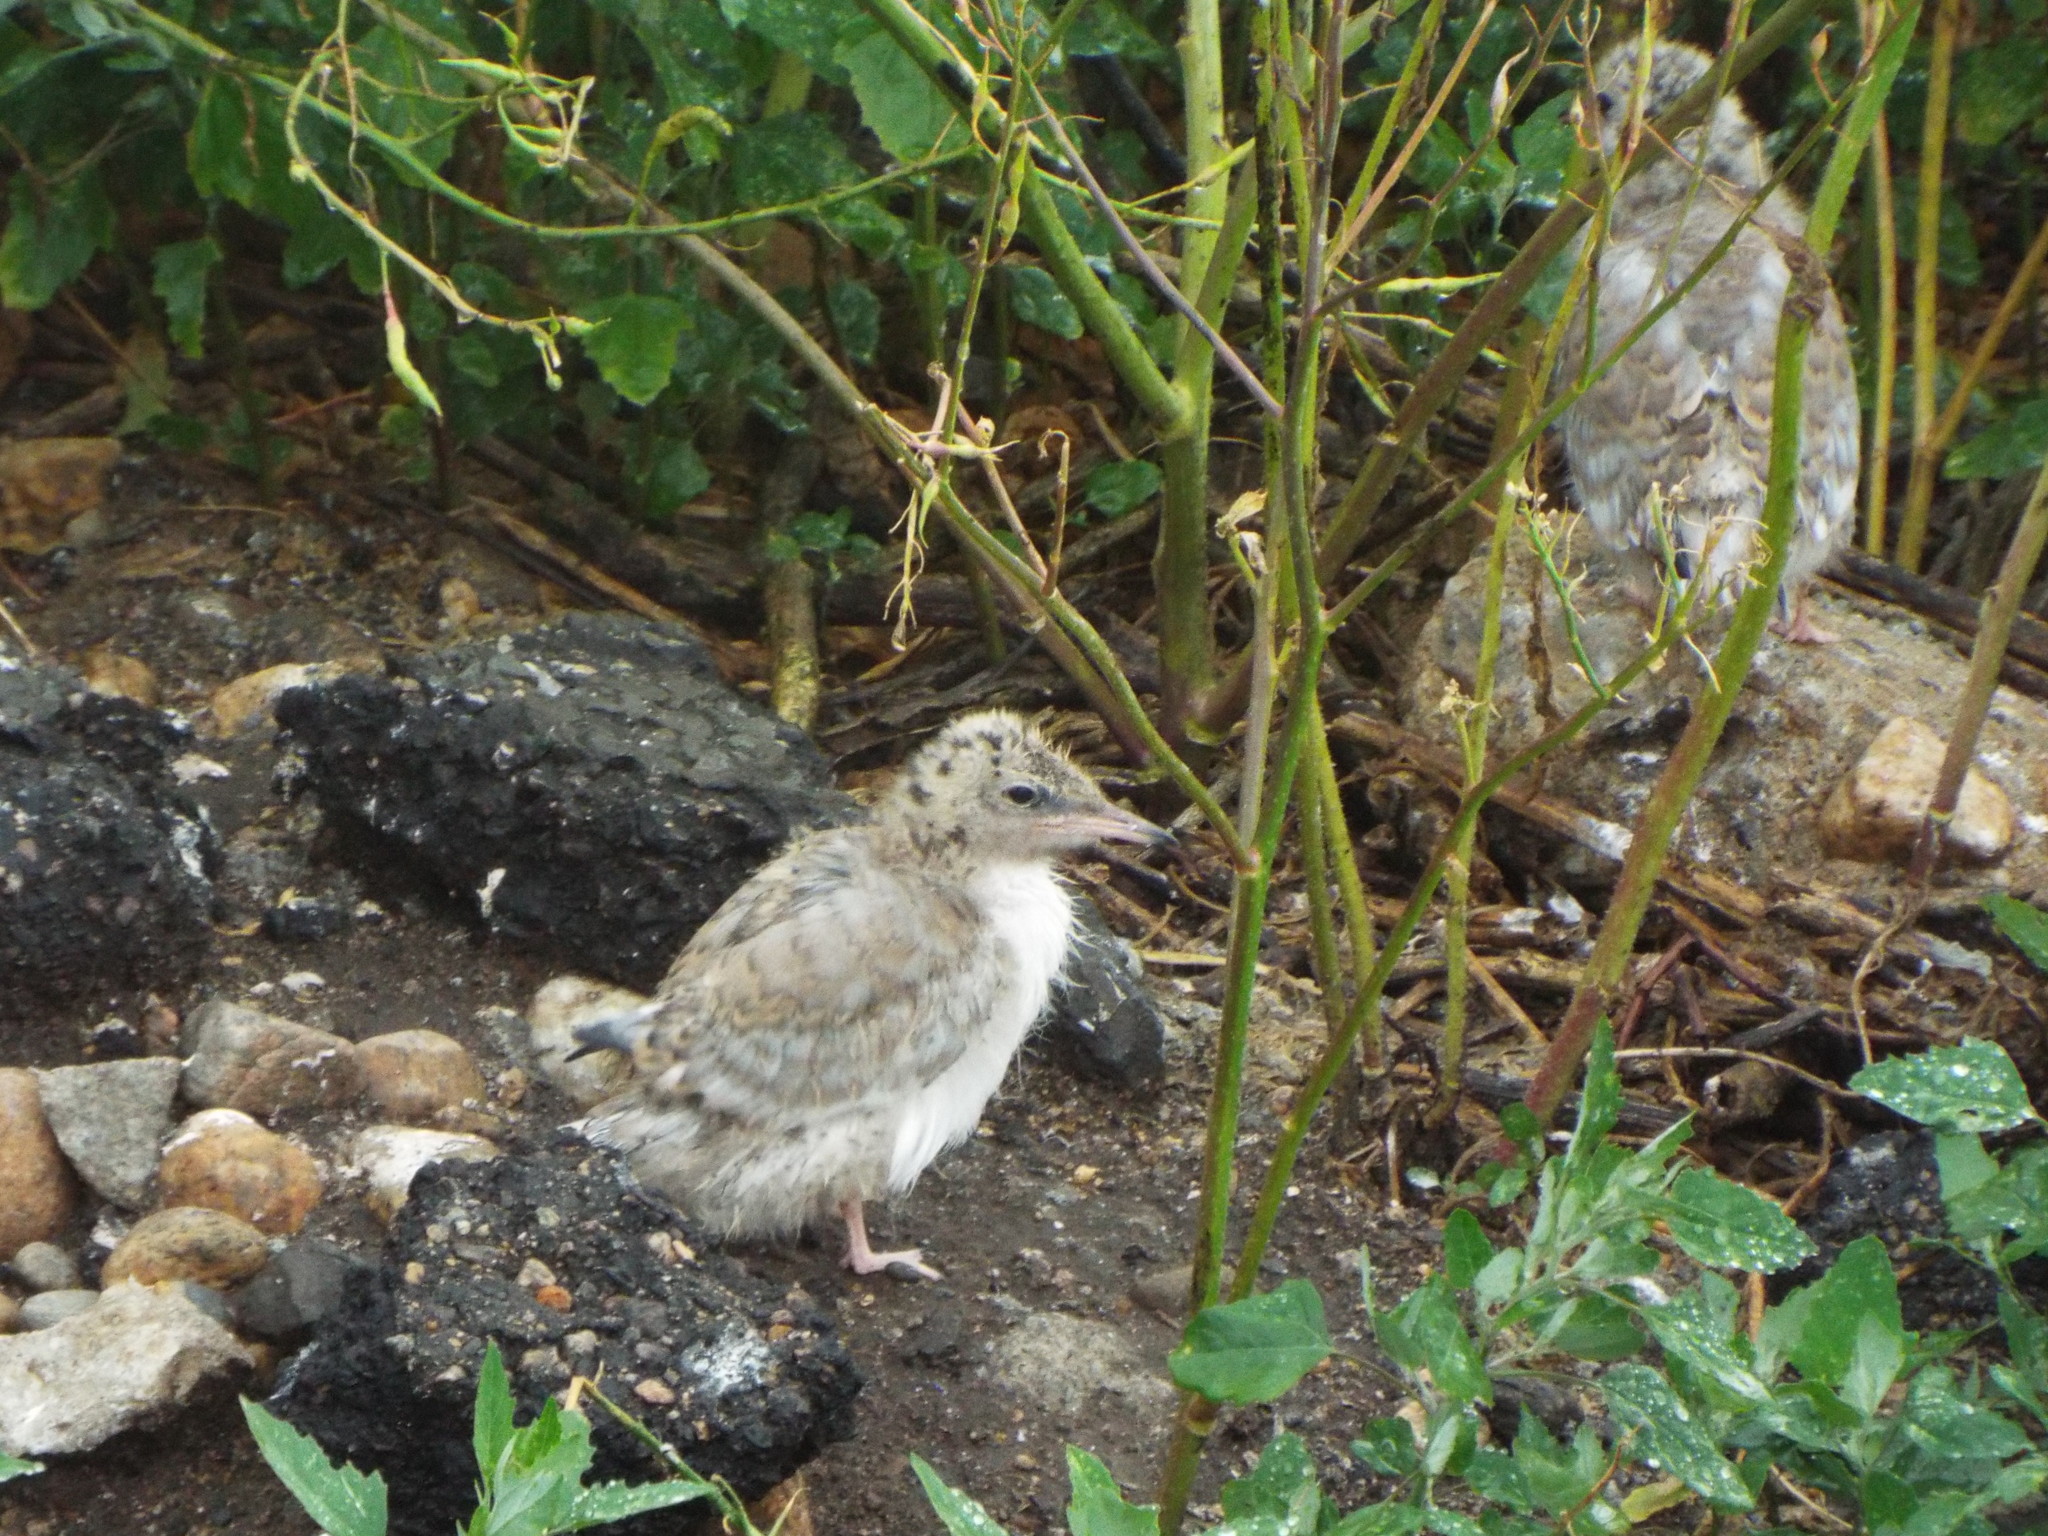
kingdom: Animalia
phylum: Chordata
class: Aves
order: Charadriiformes
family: Laridae
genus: Sterna
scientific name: Sterna hirundo
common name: Common tern
